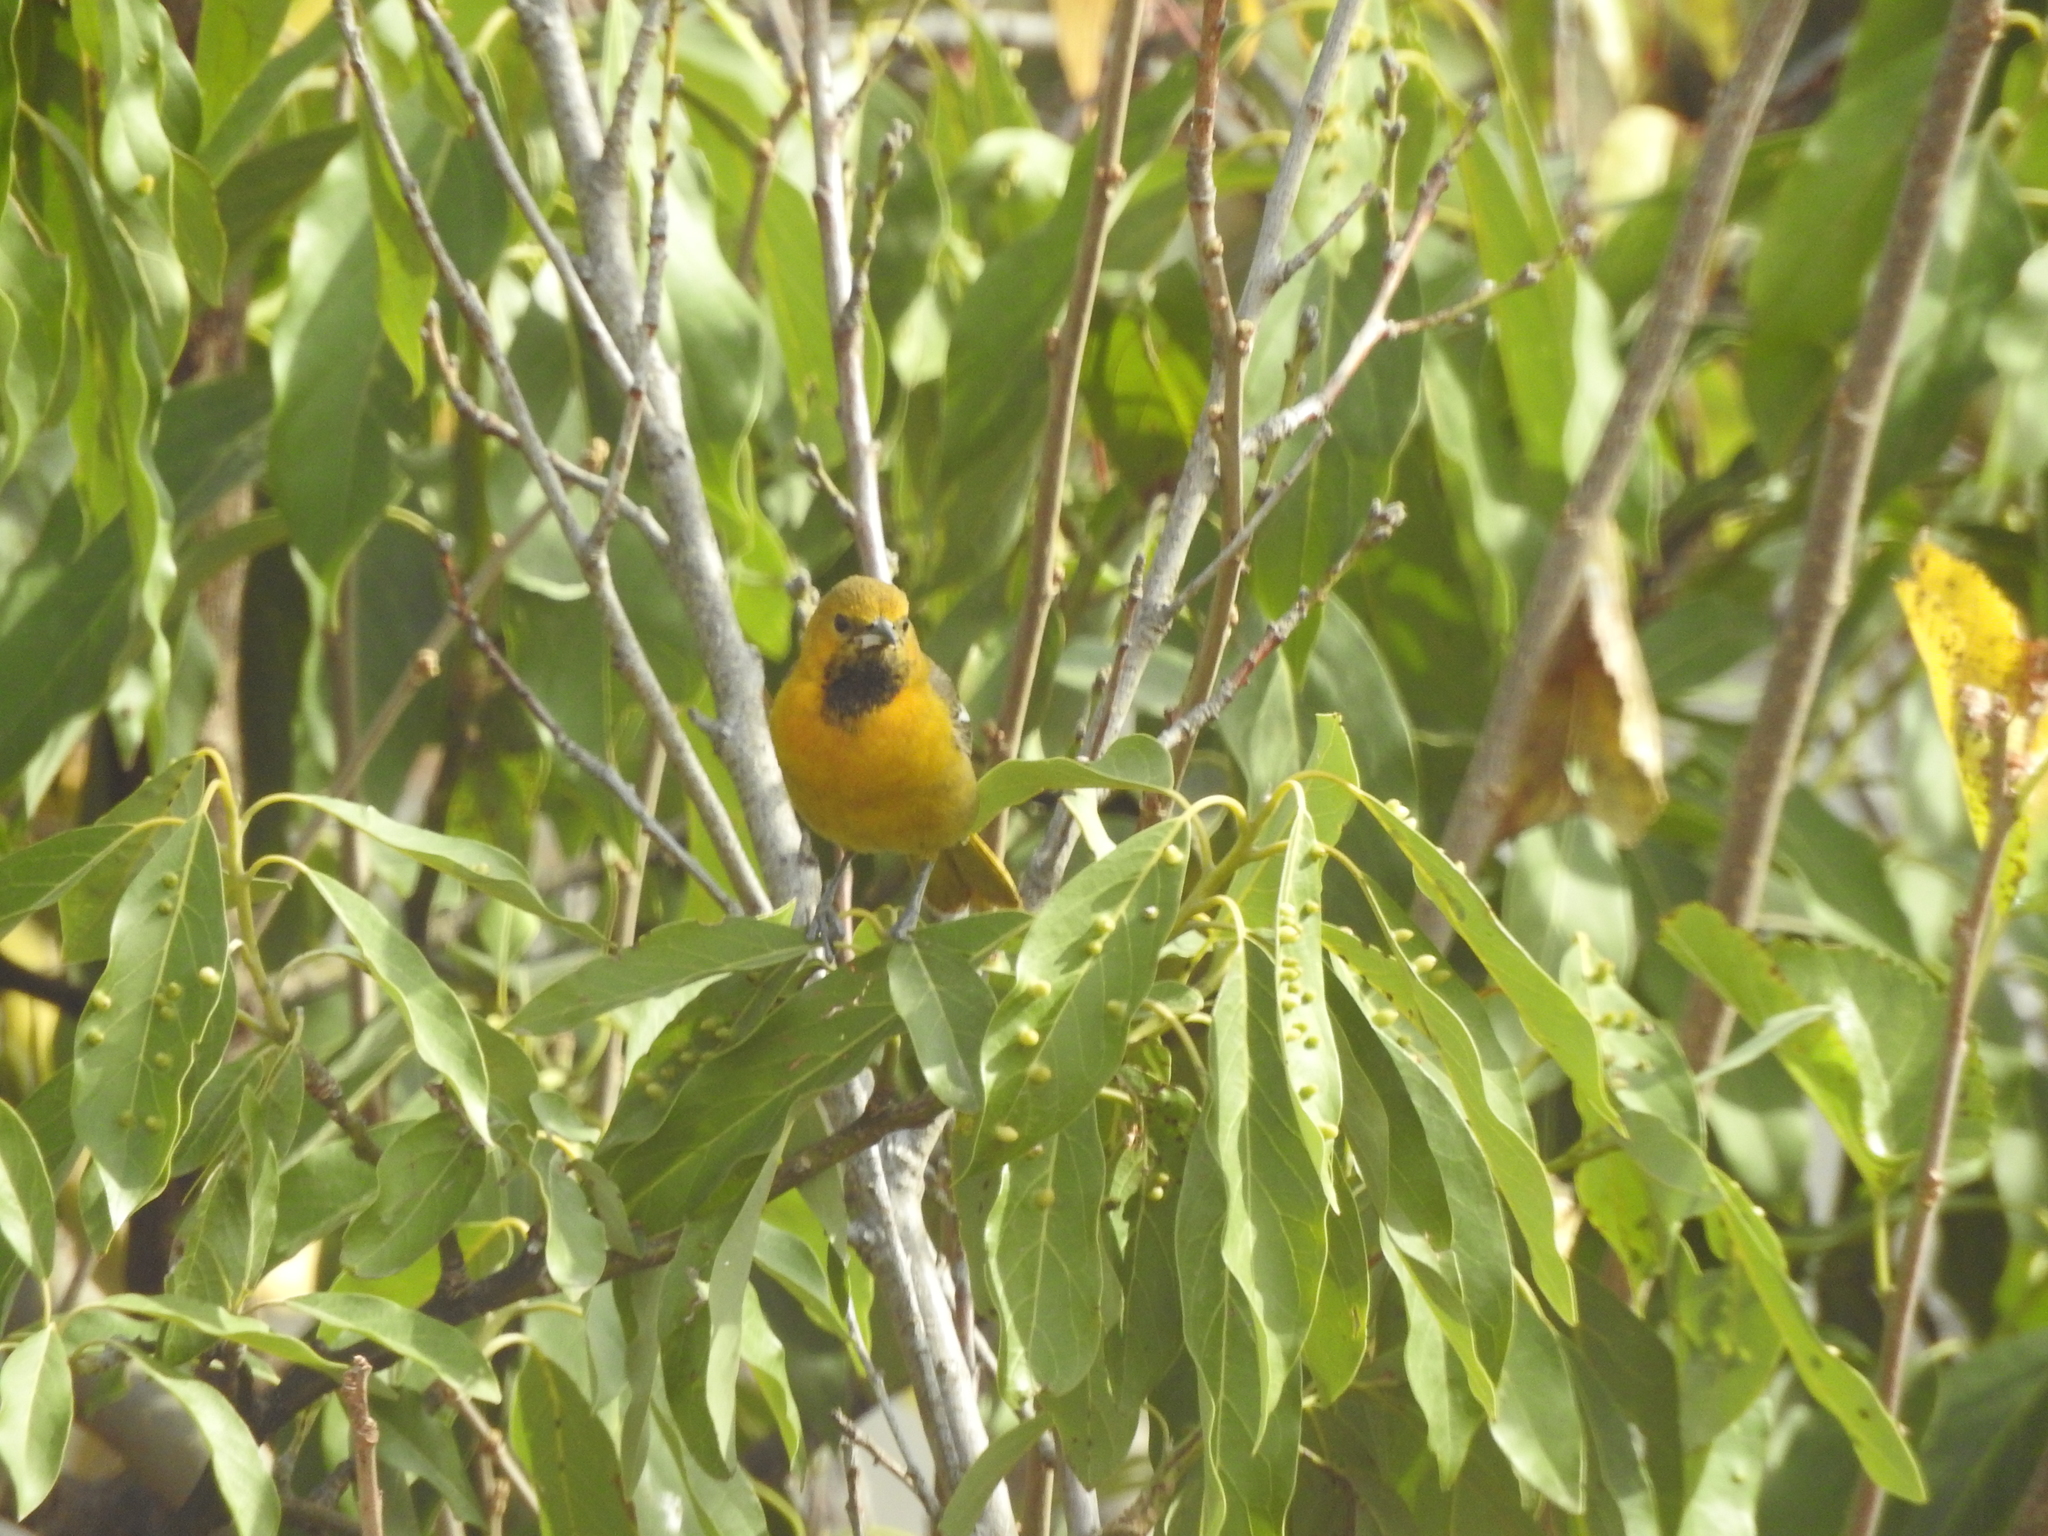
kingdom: Animalia
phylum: Chordata
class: Aves
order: Passeriformes
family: Icteridae
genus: Icterus
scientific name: Icterus pustulatus
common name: Streak-backed oriole
